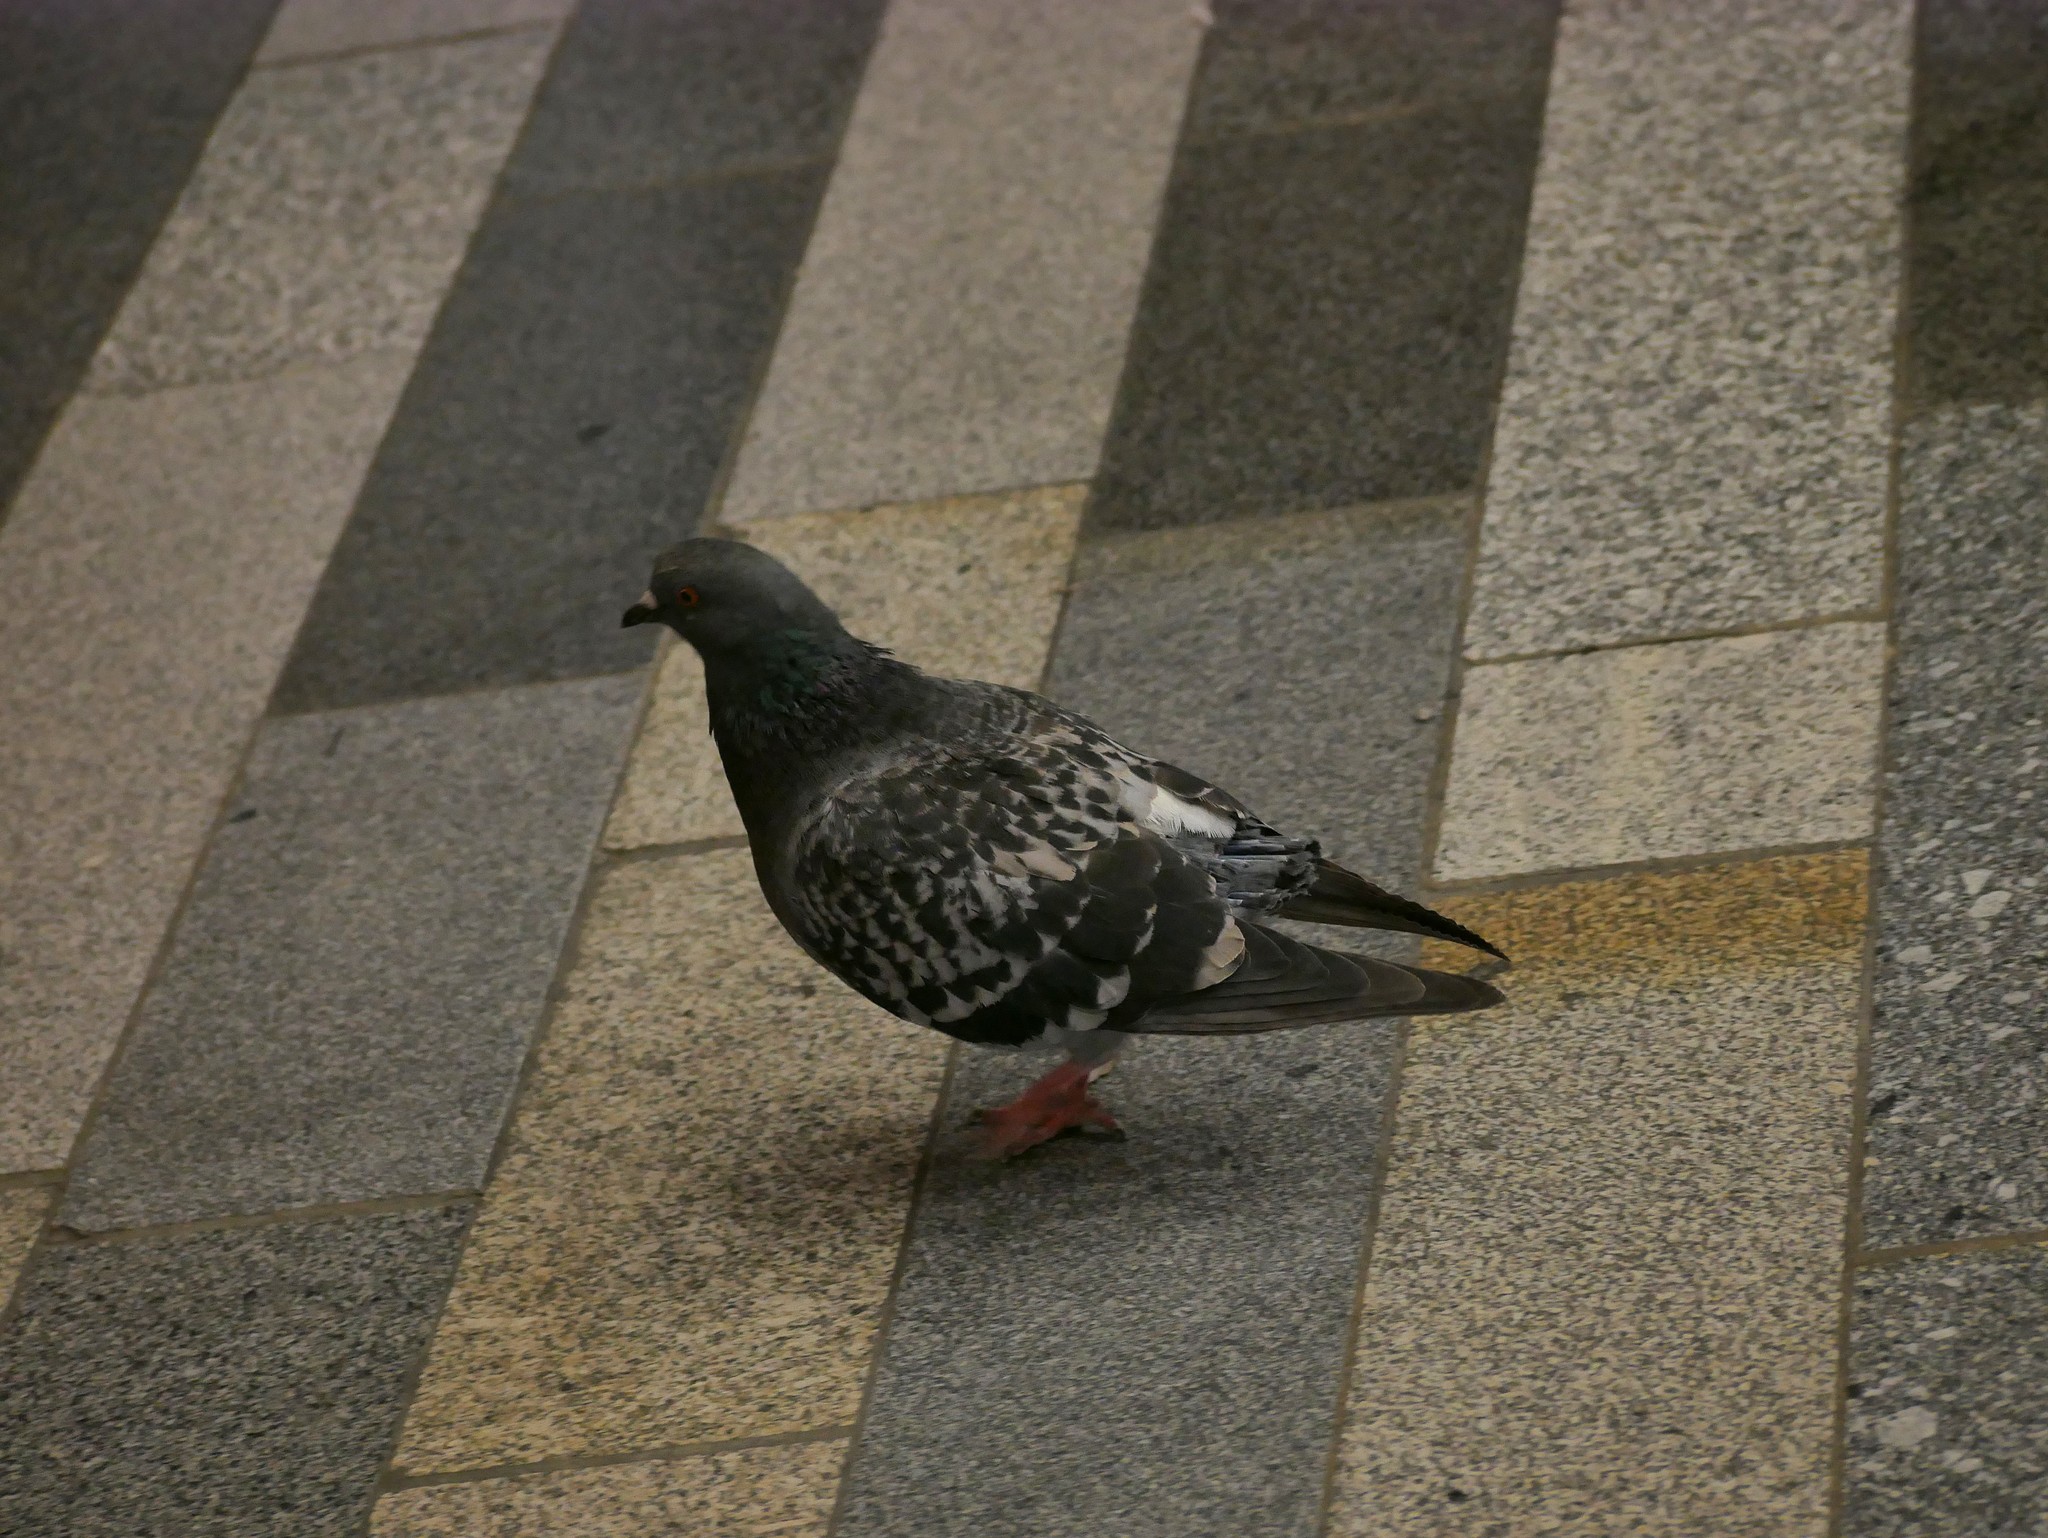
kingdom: Animalia
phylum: Chordata
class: Aves
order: Columbiformes
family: Columbidae
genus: Columba
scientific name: Columba livia
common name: Rock pigeon
